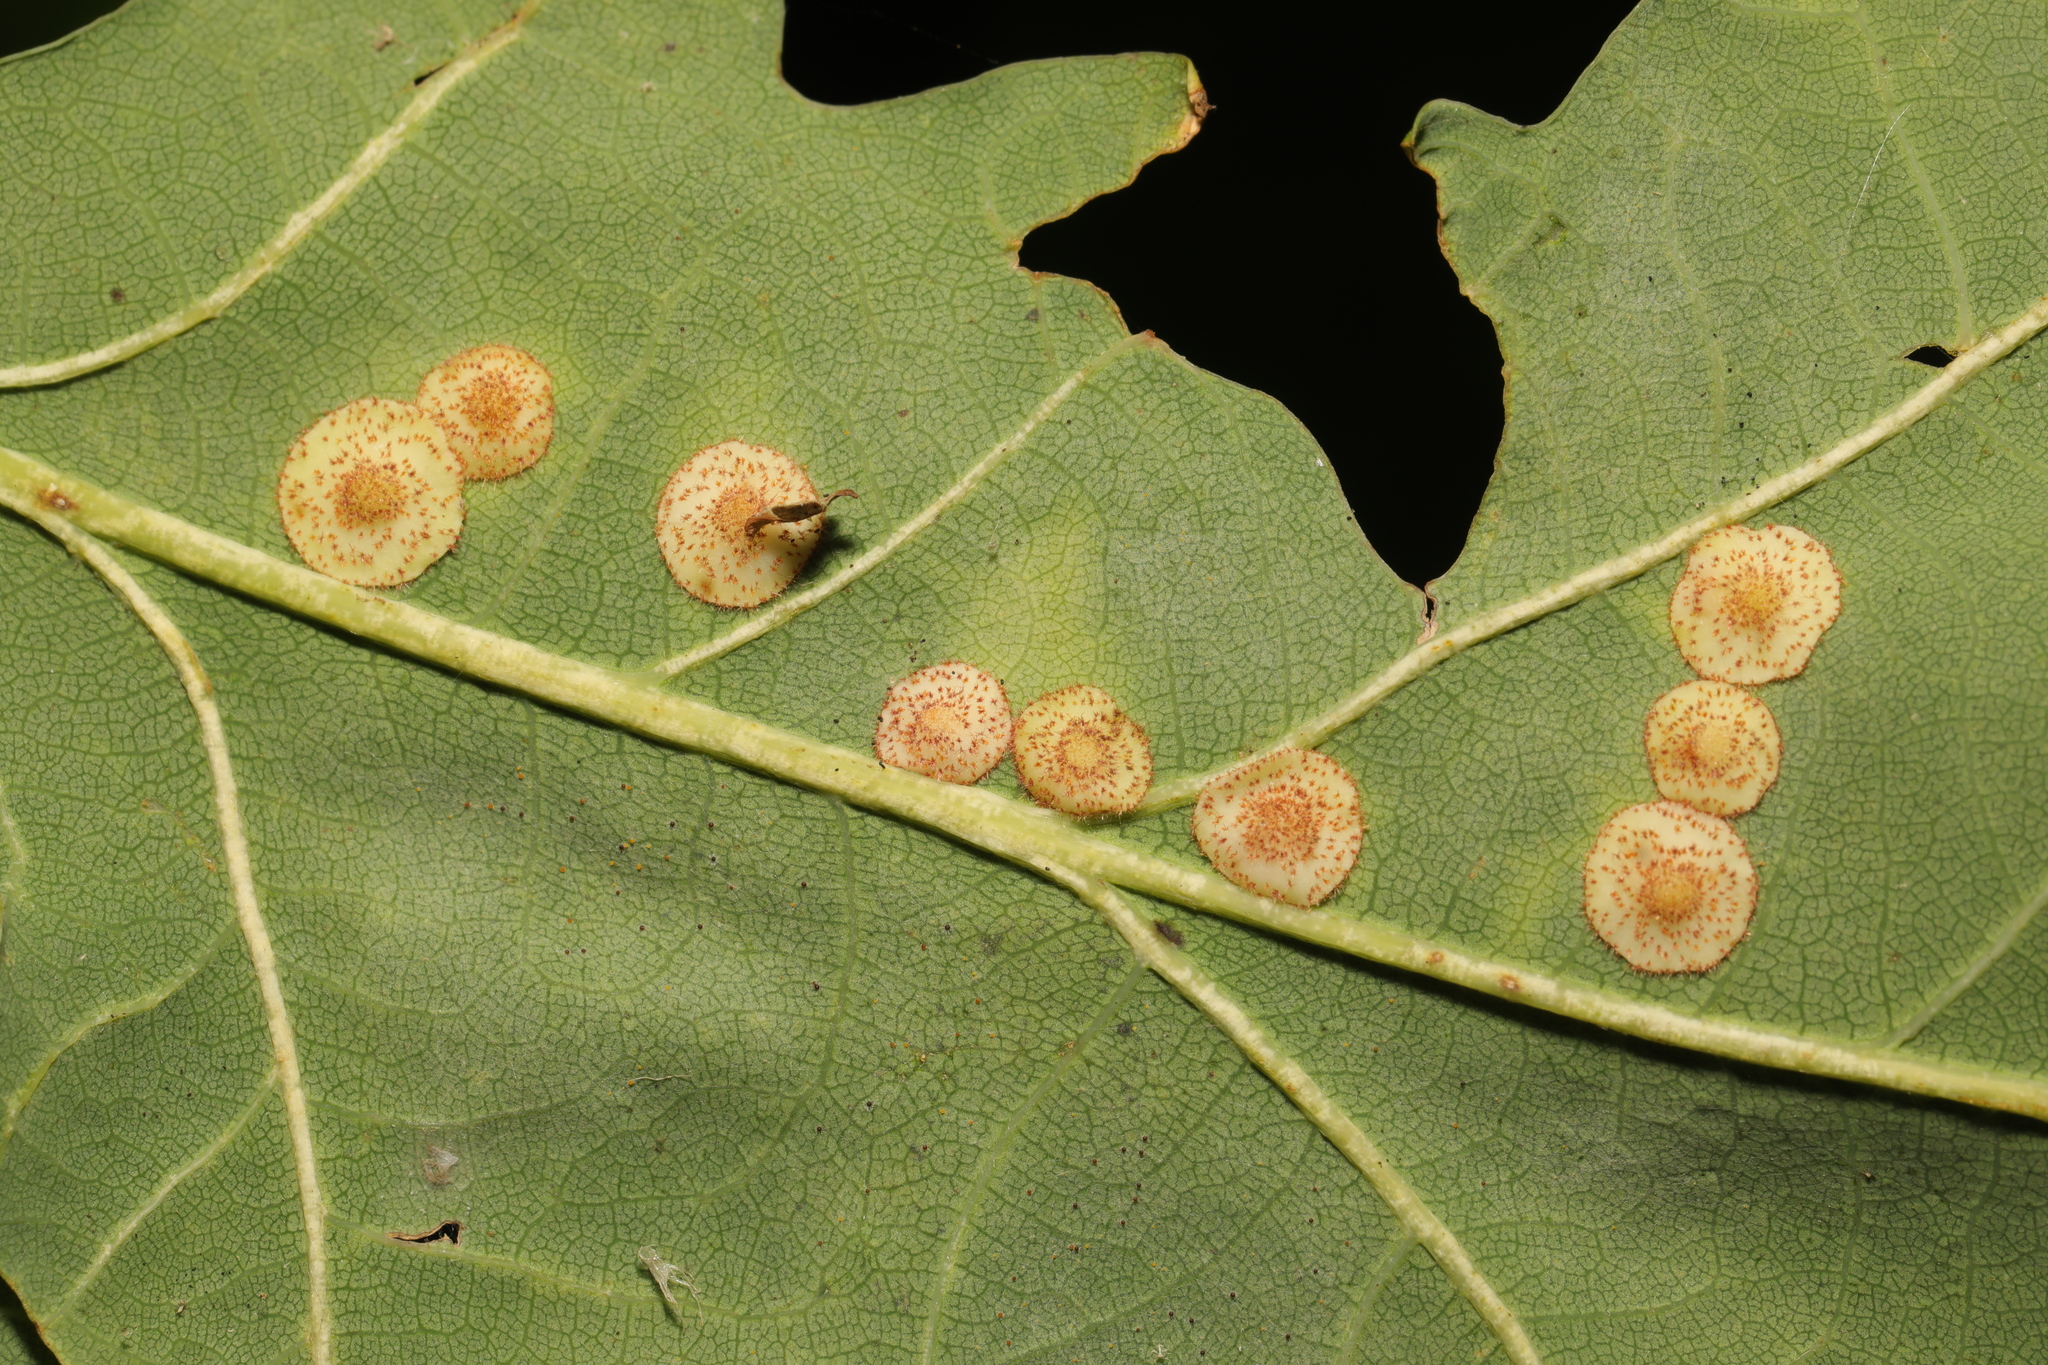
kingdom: Animalia
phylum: Arthropoda
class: Insecta
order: Hymenoptera
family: Cynipidae
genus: Neuroterus
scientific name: Neuroterus quercusbaccarum
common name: Common spangle gall
